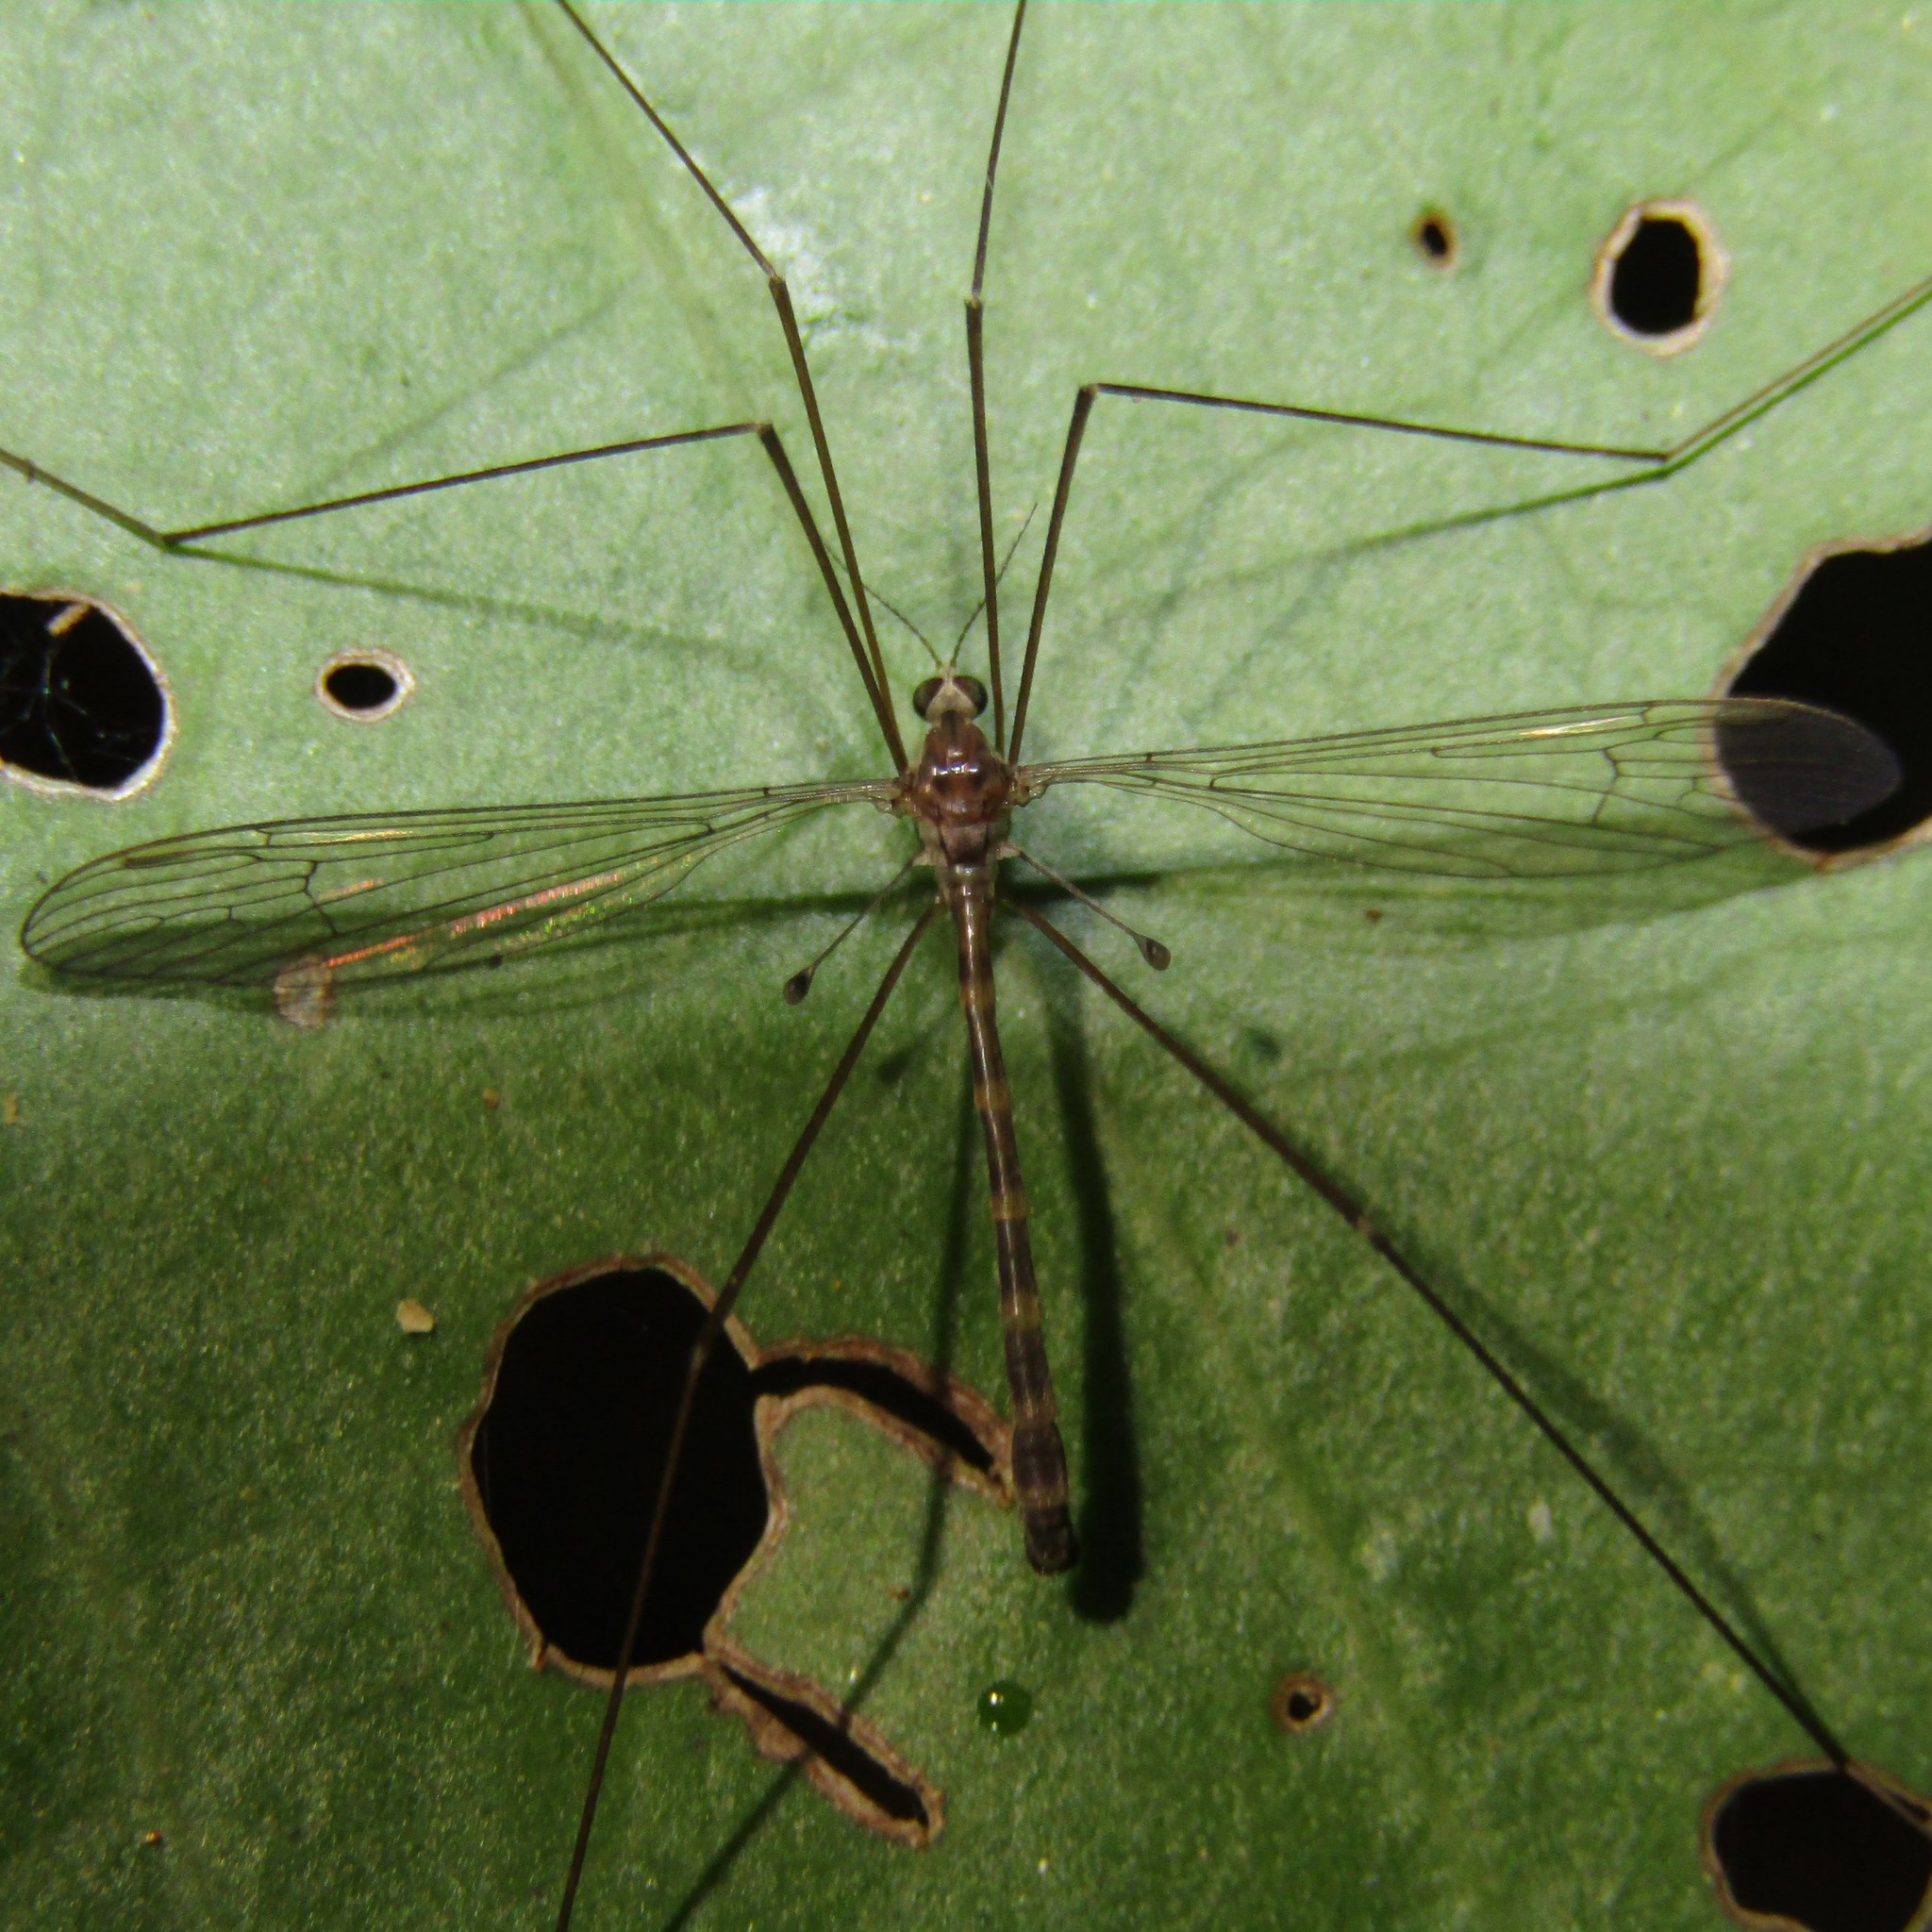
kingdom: Animalia
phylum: Arthropoda
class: Insecta
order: Diptera
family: Limoniidae
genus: Limnophilella
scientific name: Limnophilella delicatula
